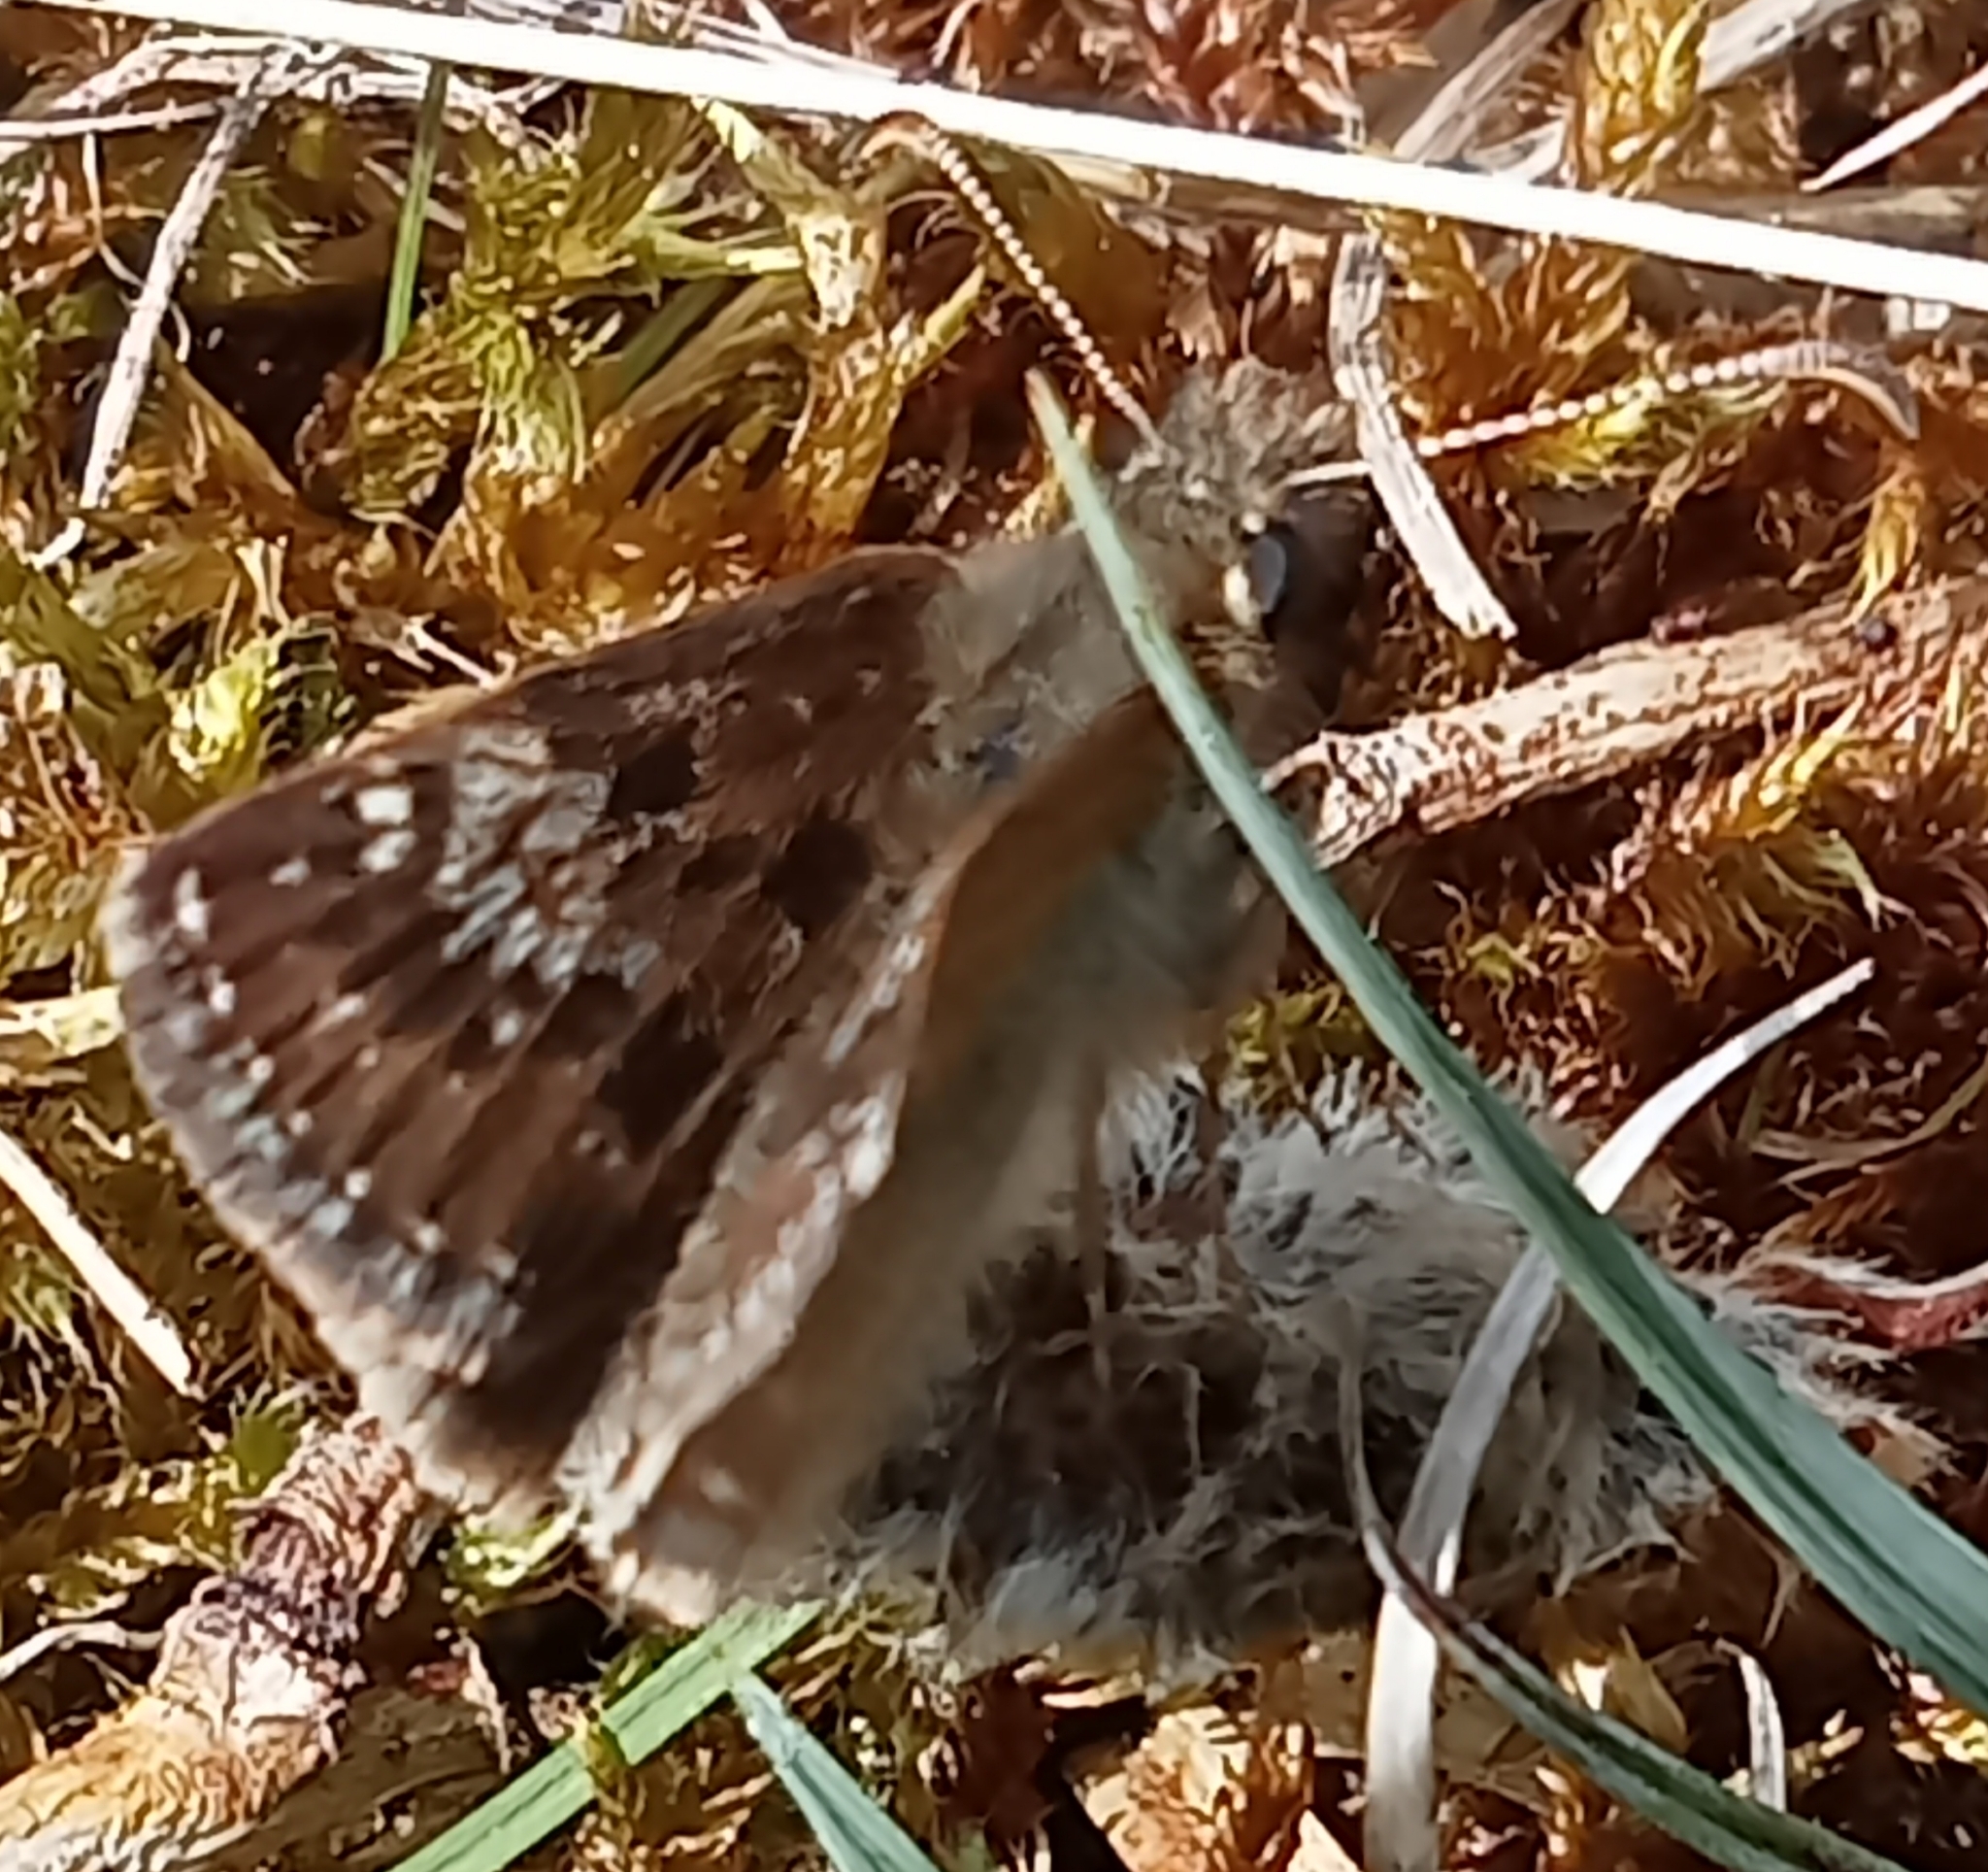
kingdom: Animalia
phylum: Arthropoda
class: Insecta
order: Lepidoptera
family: Hesperiidae
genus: Erynnis
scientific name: Erynnis tages
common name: Dingy skipper
